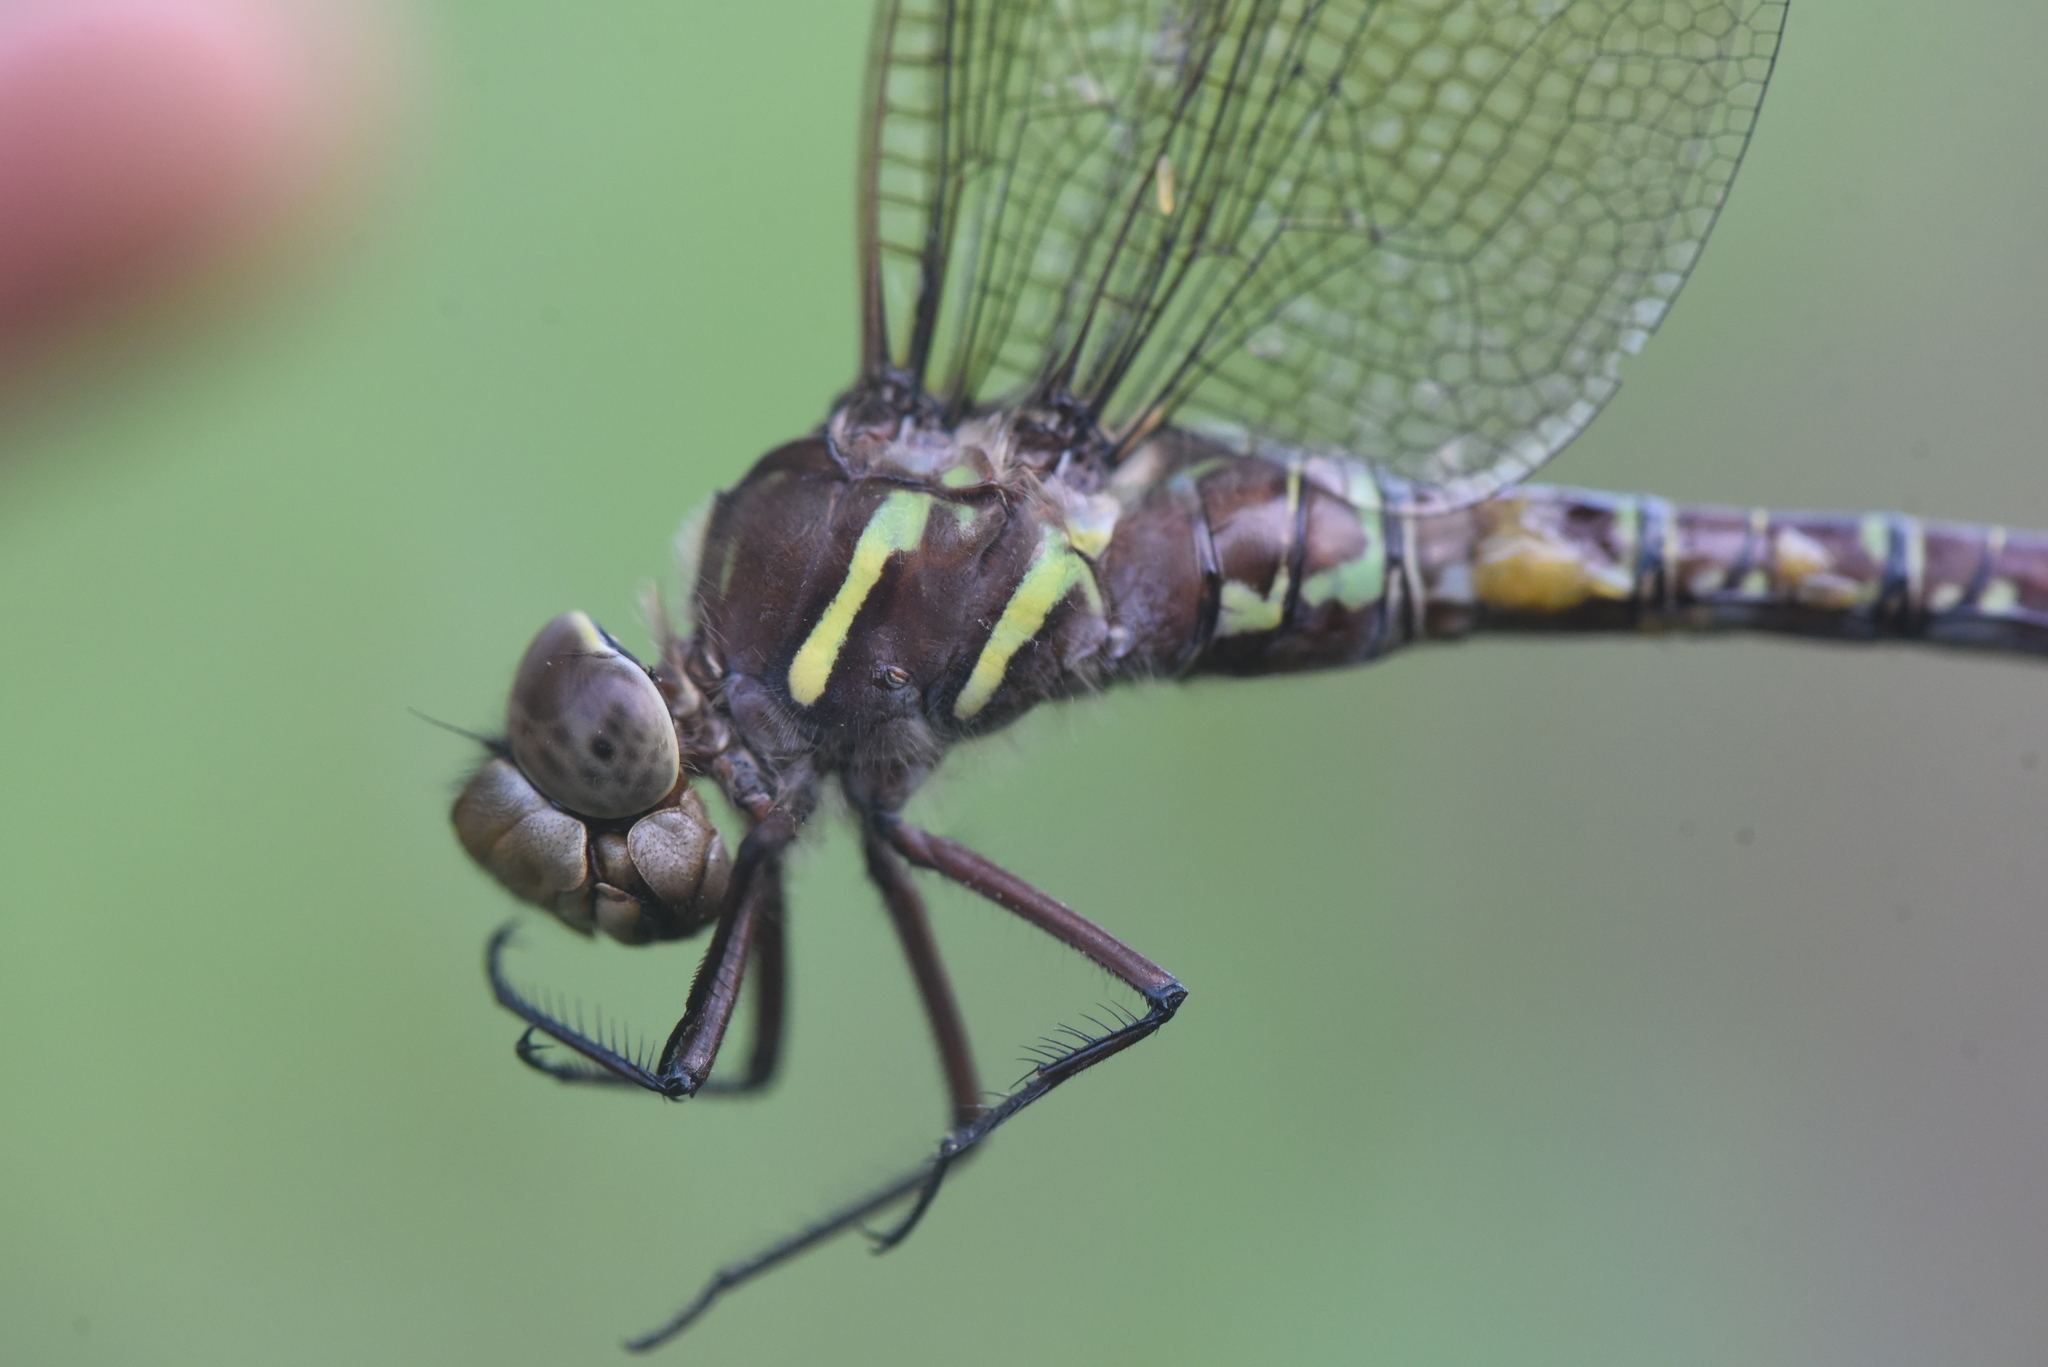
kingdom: Animalia
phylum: Arthropoda
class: Insecta
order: Odonata
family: Aeshnidae
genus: Aeshna
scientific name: Aeshna umbrosa
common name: Shadow darner
